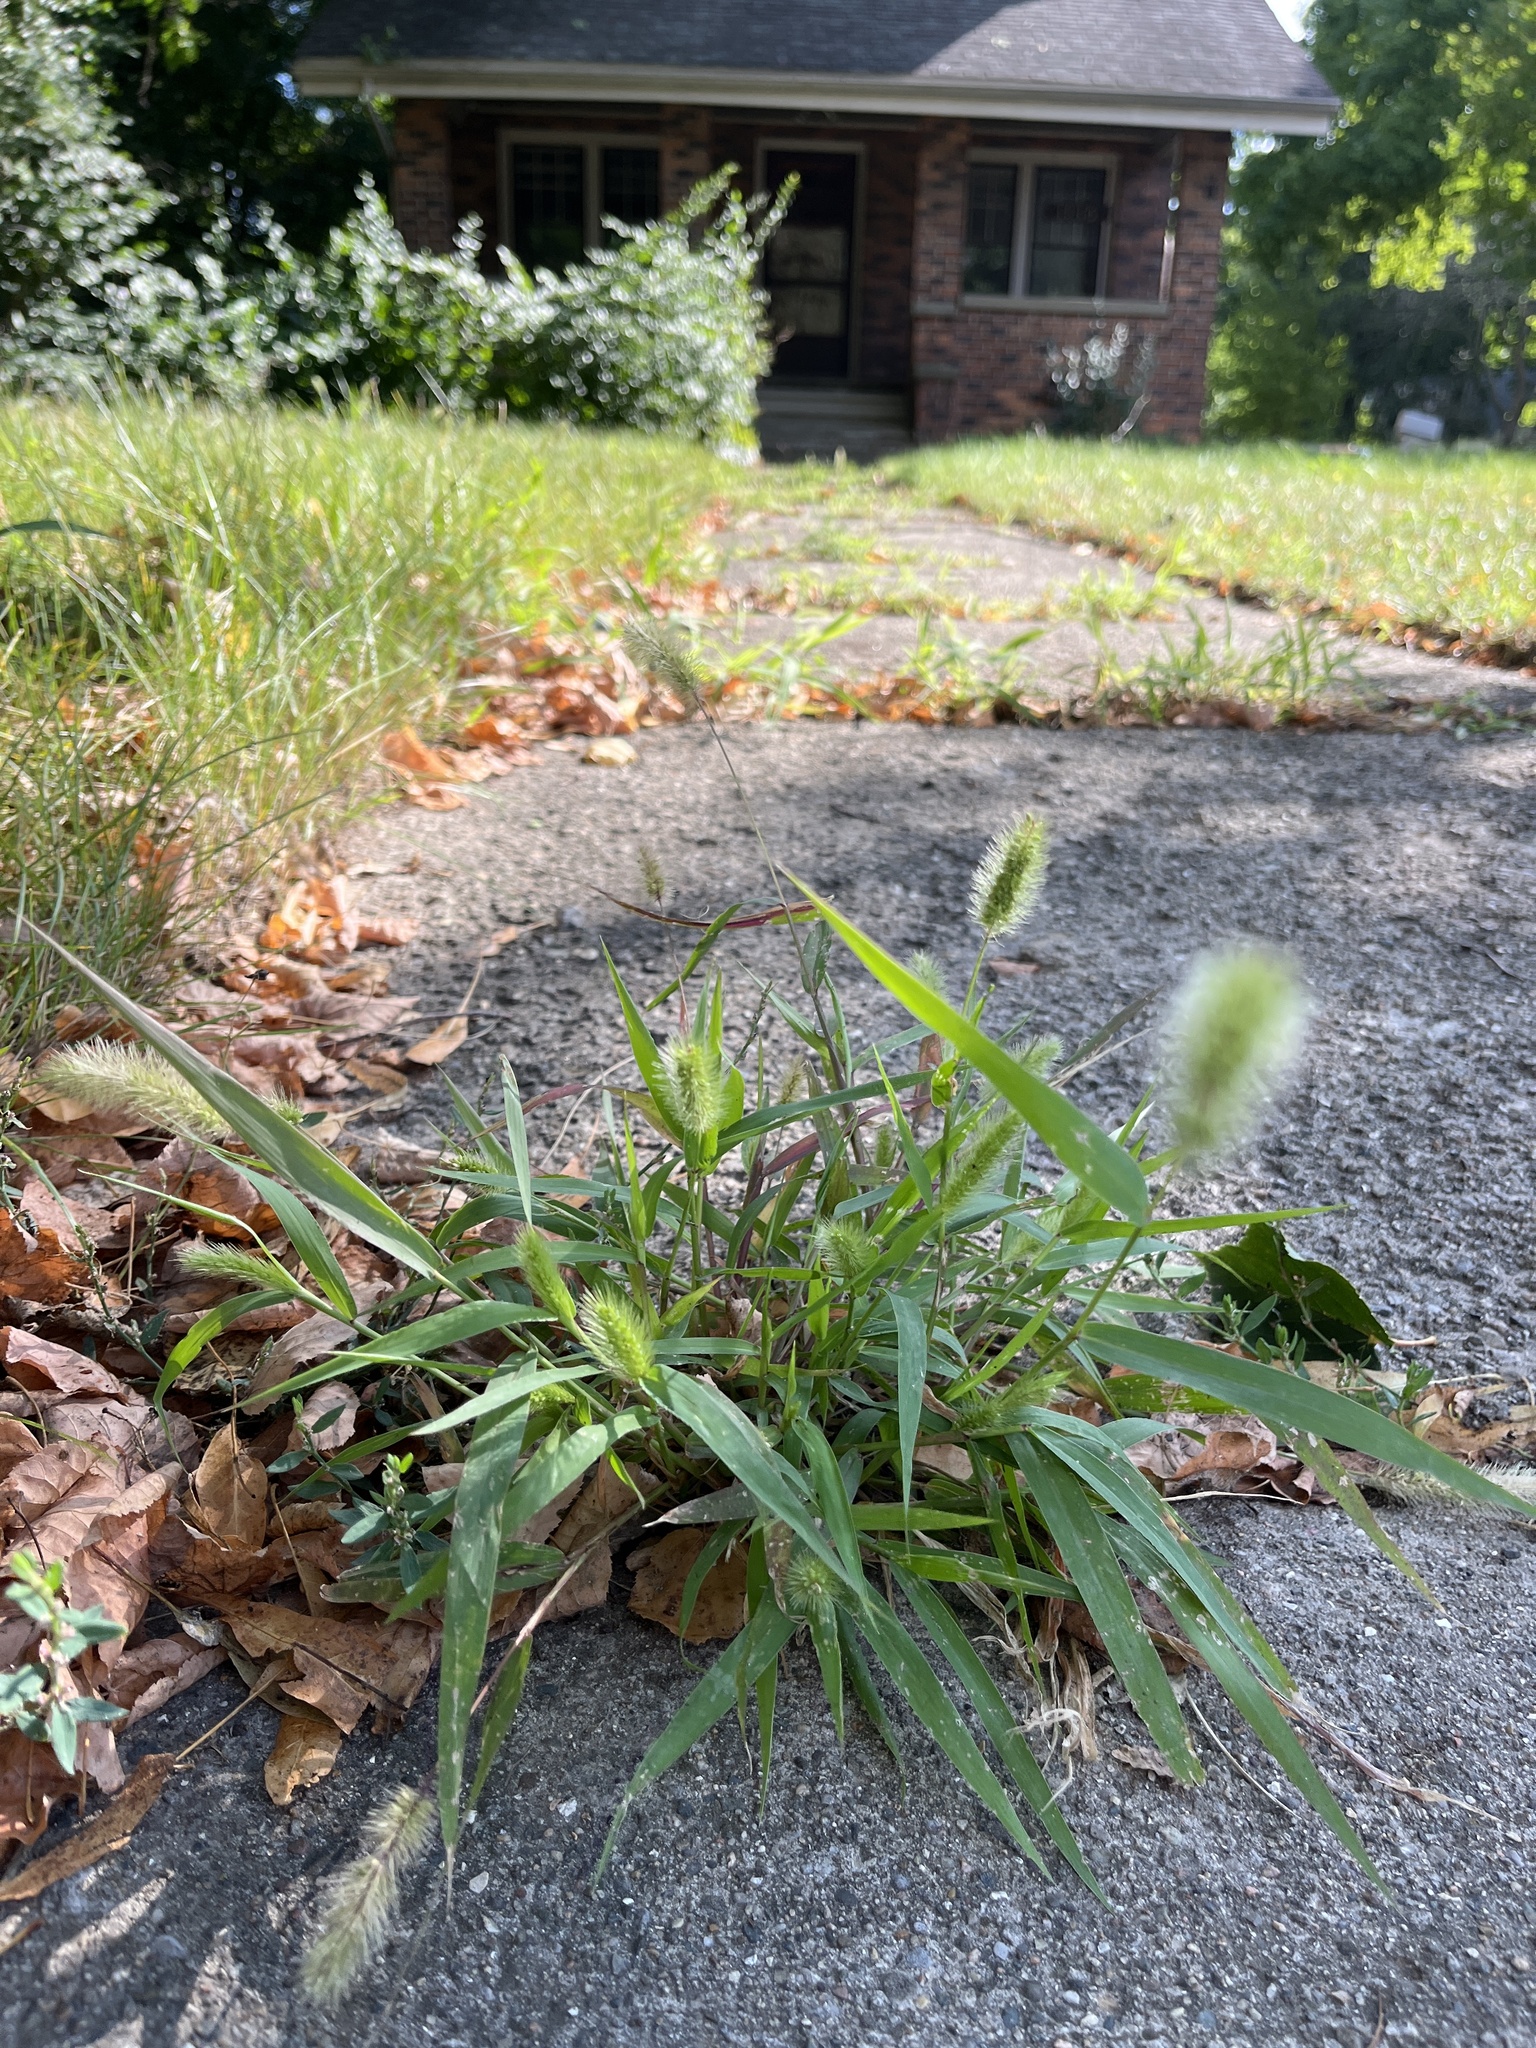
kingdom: Plantae
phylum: Tracheophyta
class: Liliopsida
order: Poales
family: Poaceae
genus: Setaria
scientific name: Setaria viridis
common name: Green bristlegrass
